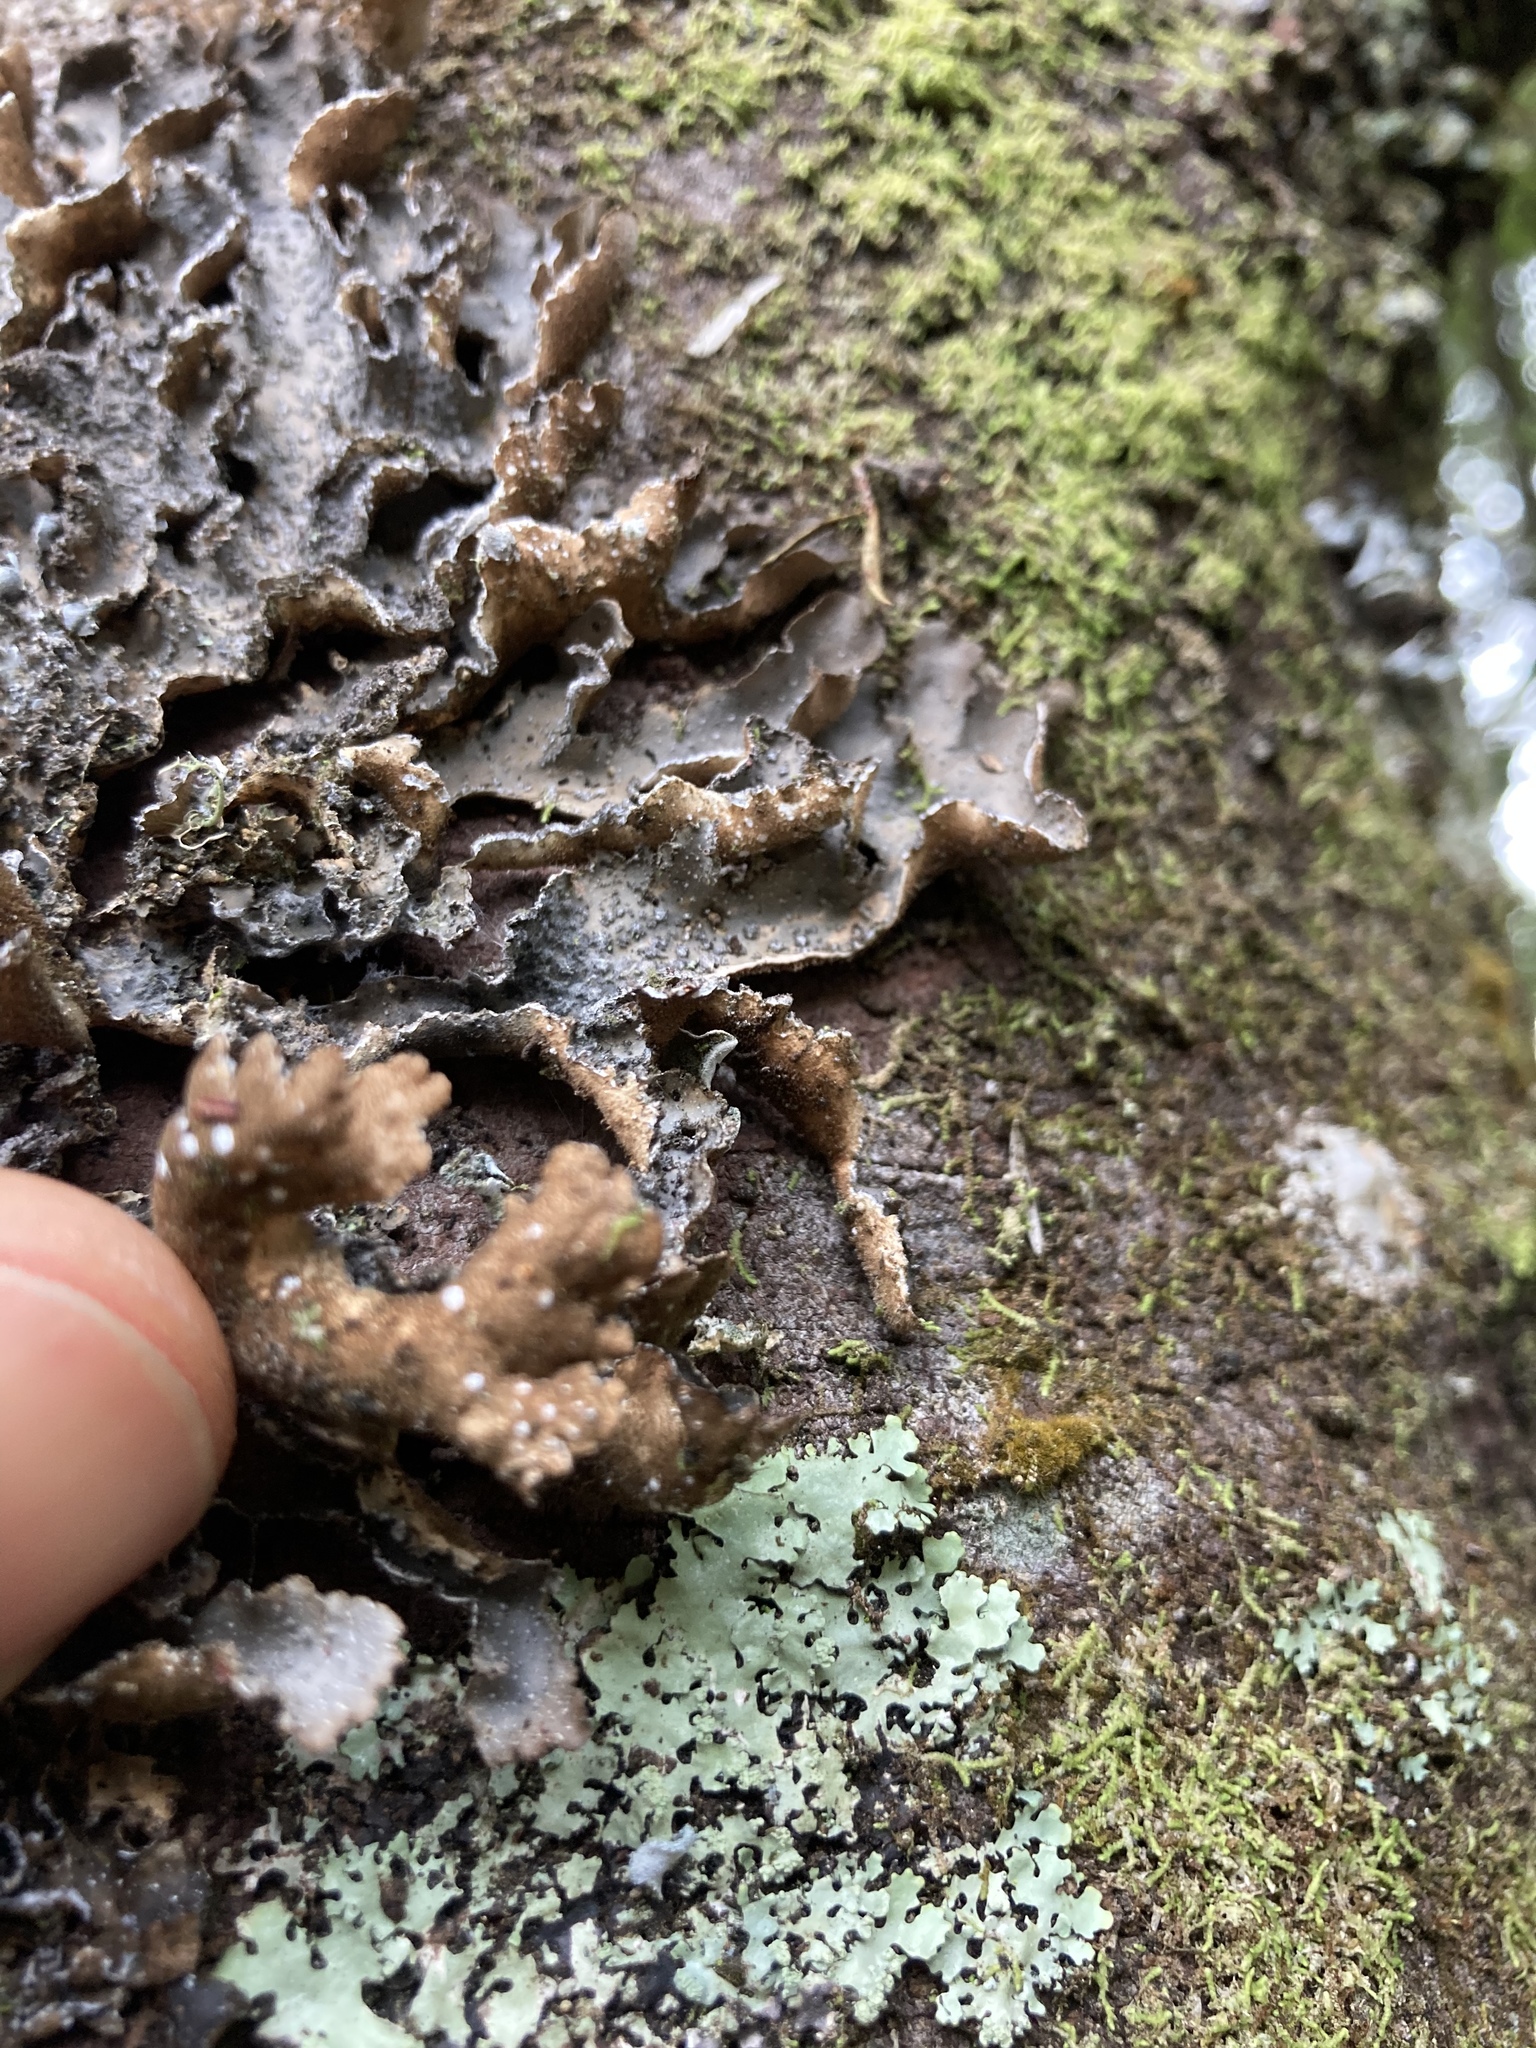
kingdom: Fungi
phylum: Ascomycota
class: Lecanoromycetes
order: Peltigerales
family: Lobariaceae
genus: Pseudocyphellaria
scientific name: Pseudocyphellaria intricata
